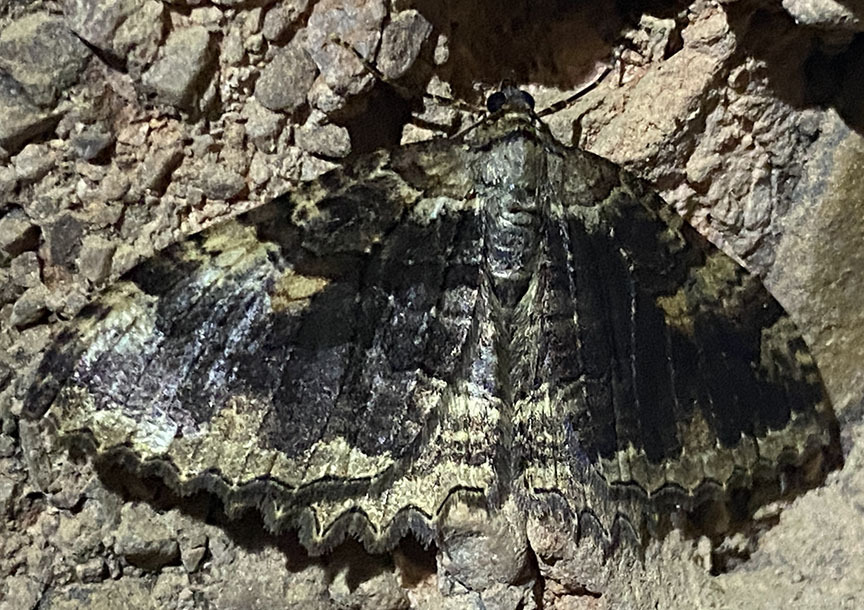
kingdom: Animalia
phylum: Arthropoda
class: Insecta
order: Lepidoptera
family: Geometridae
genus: Triphosa
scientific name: Triphosa haesitata
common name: Tissue moth
